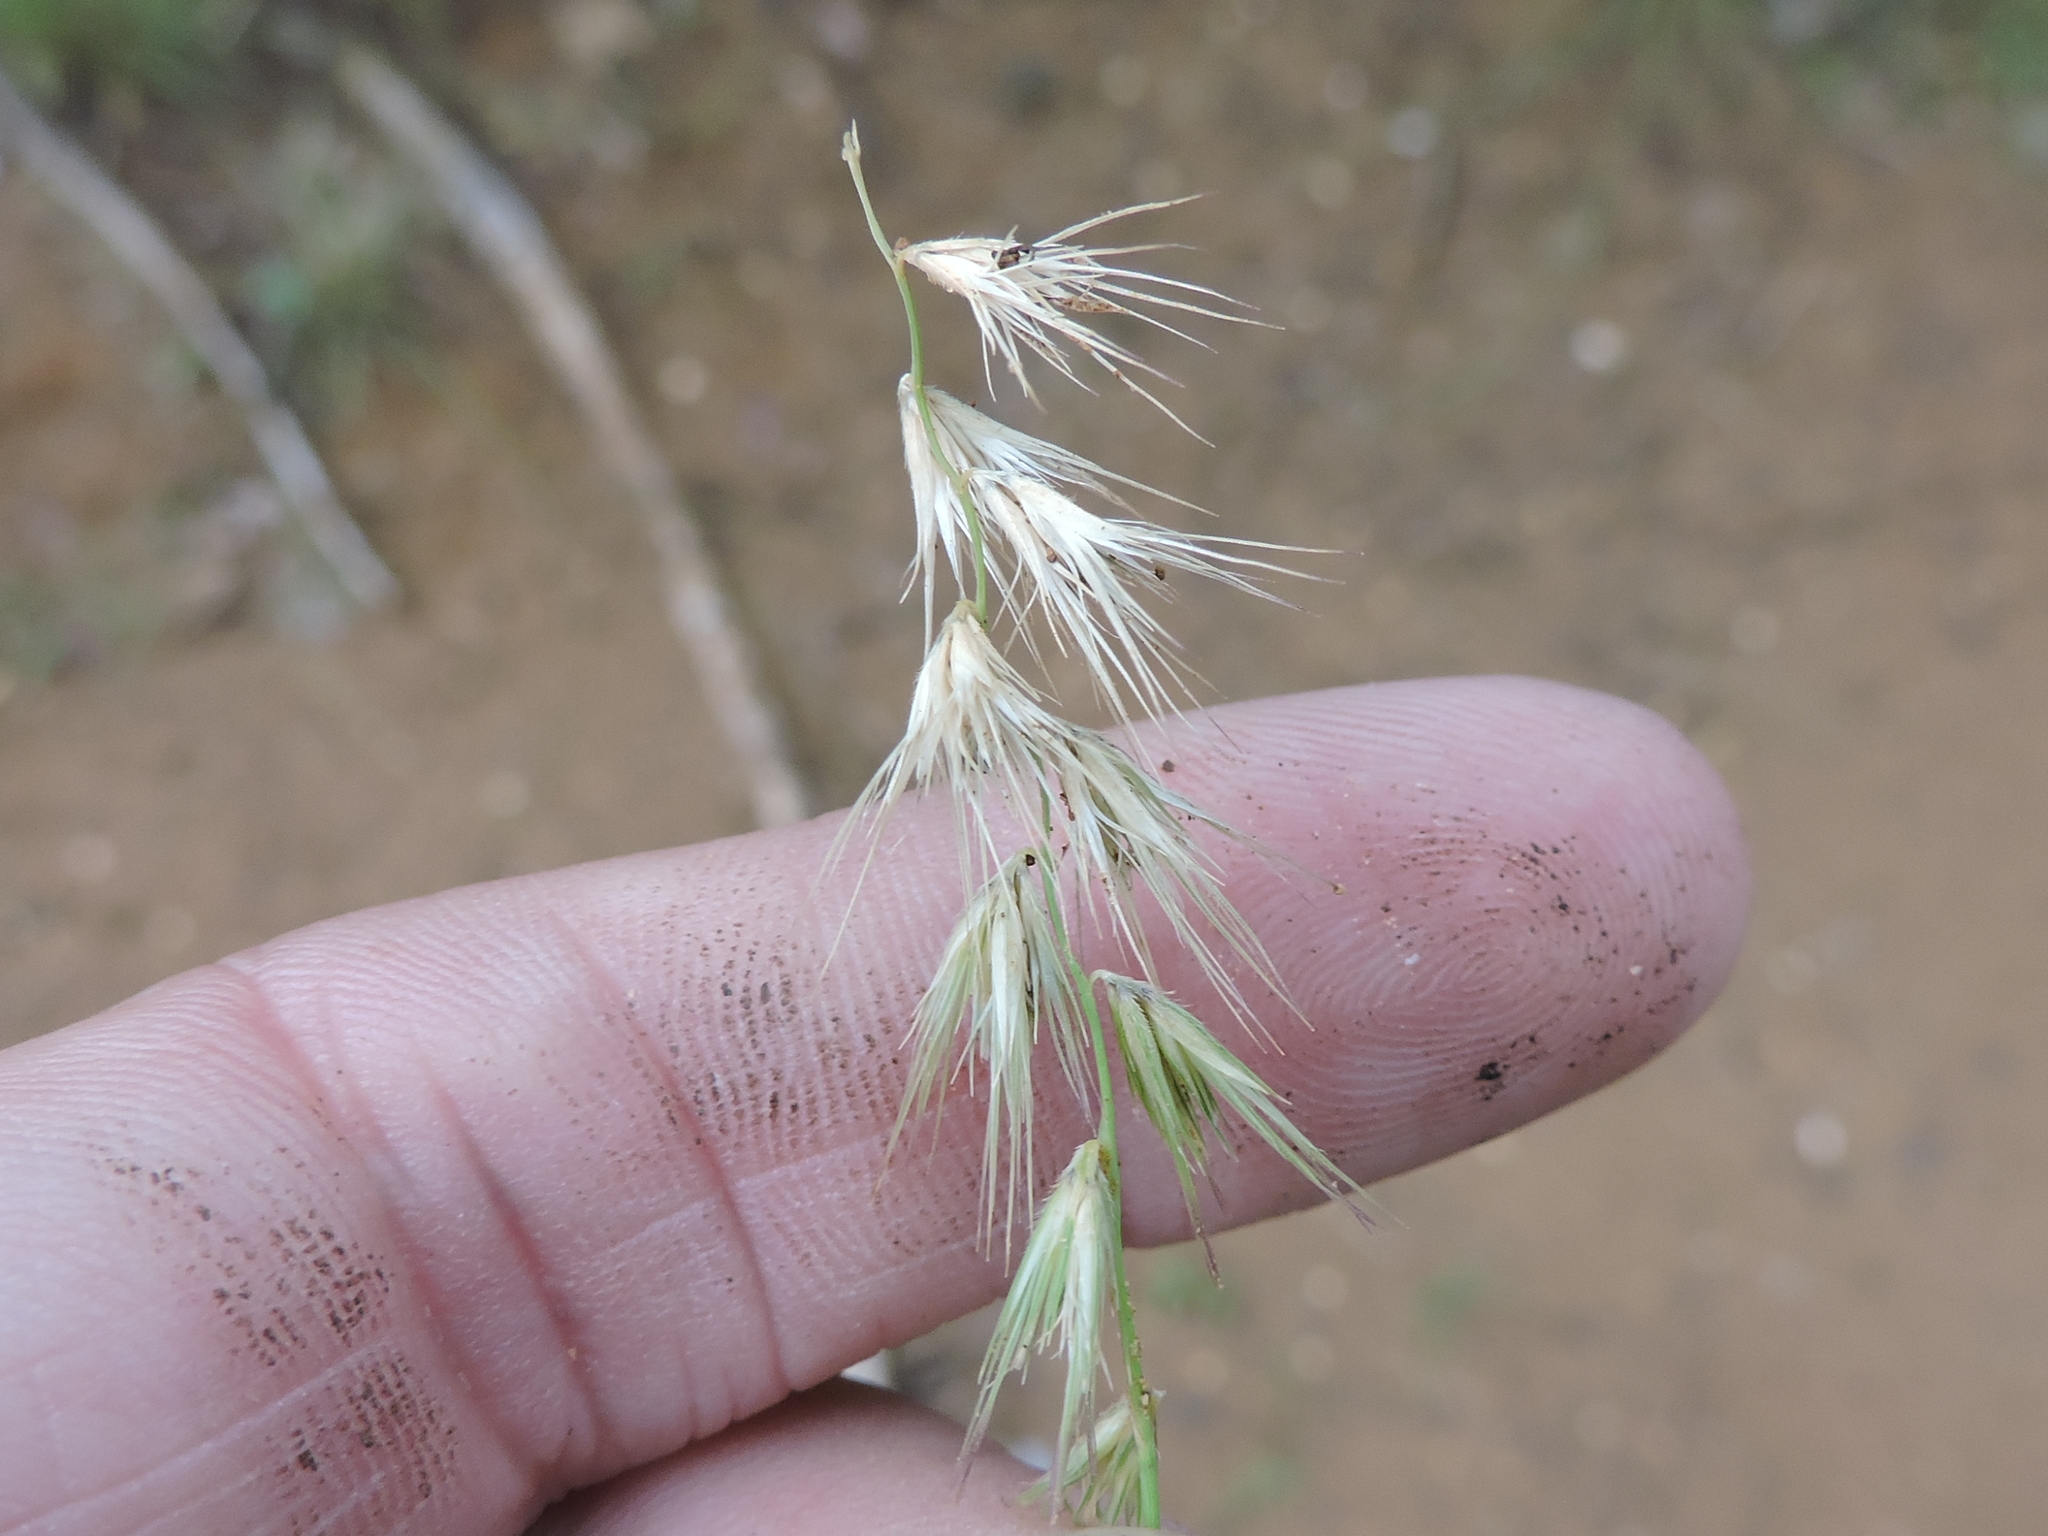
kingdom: Plantae
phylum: Tracheophyta
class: Liliopsida
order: Poales
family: Poaceae
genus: Bouteloua
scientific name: Bouteloua rigidiseta
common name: Texas grama
